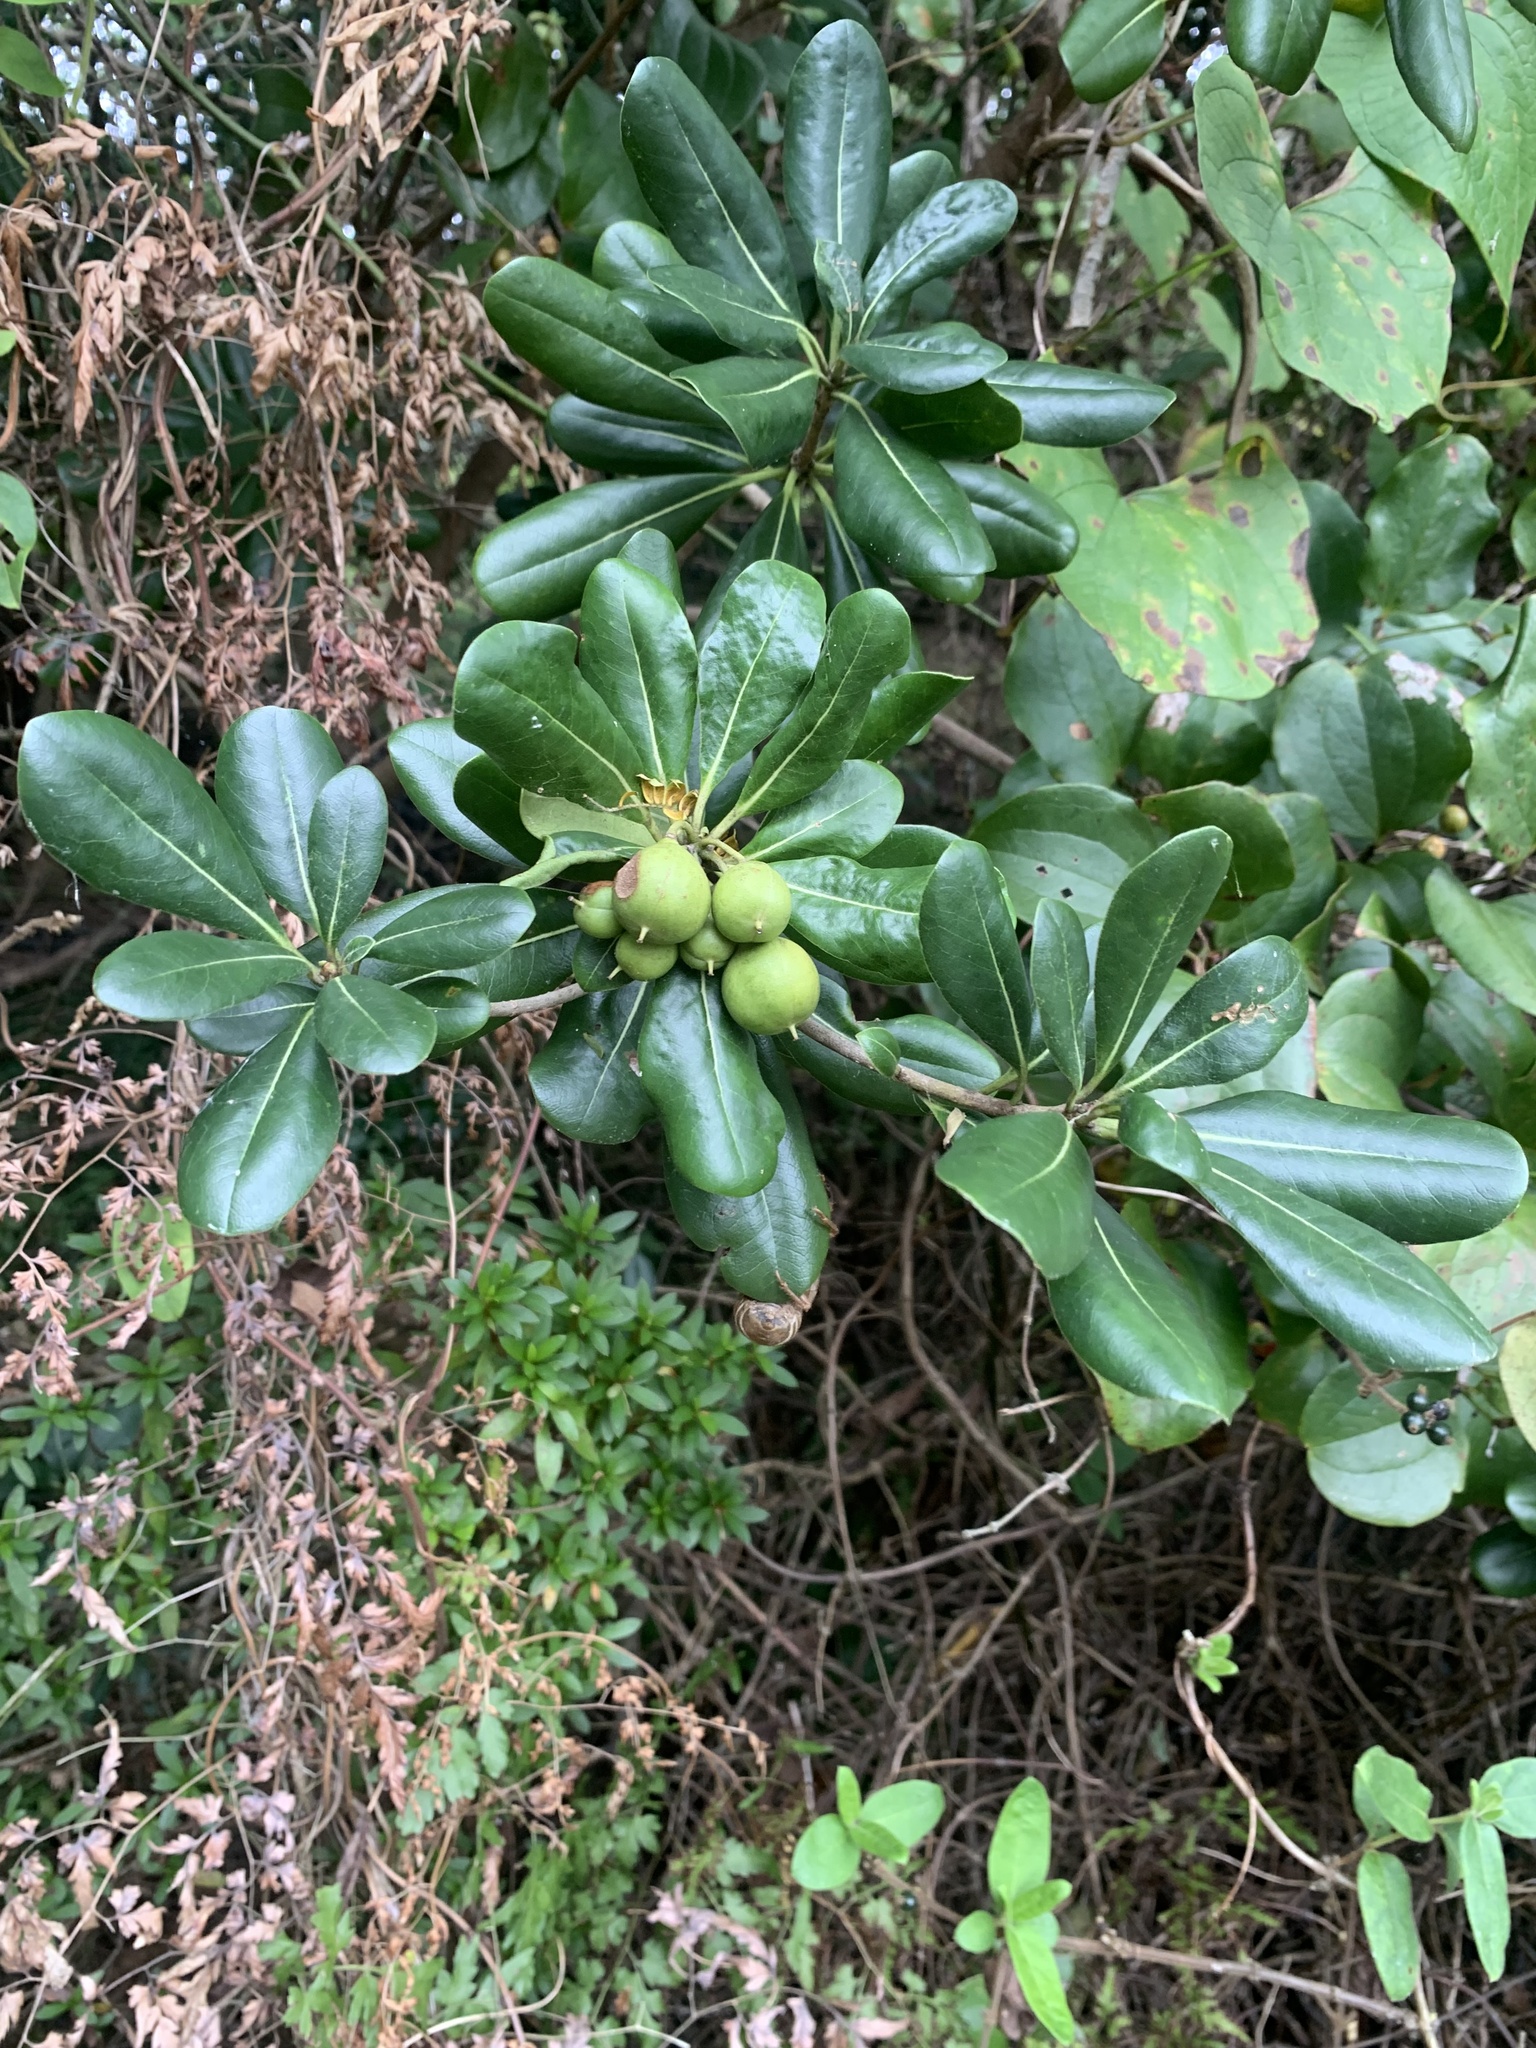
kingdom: Plantae
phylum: Tracheophyta
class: Magnoliopsida
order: Apiales
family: Pittosporaceae
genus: Pittosporum
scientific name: Pittosporum tobira
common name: Japanese cheesewood
